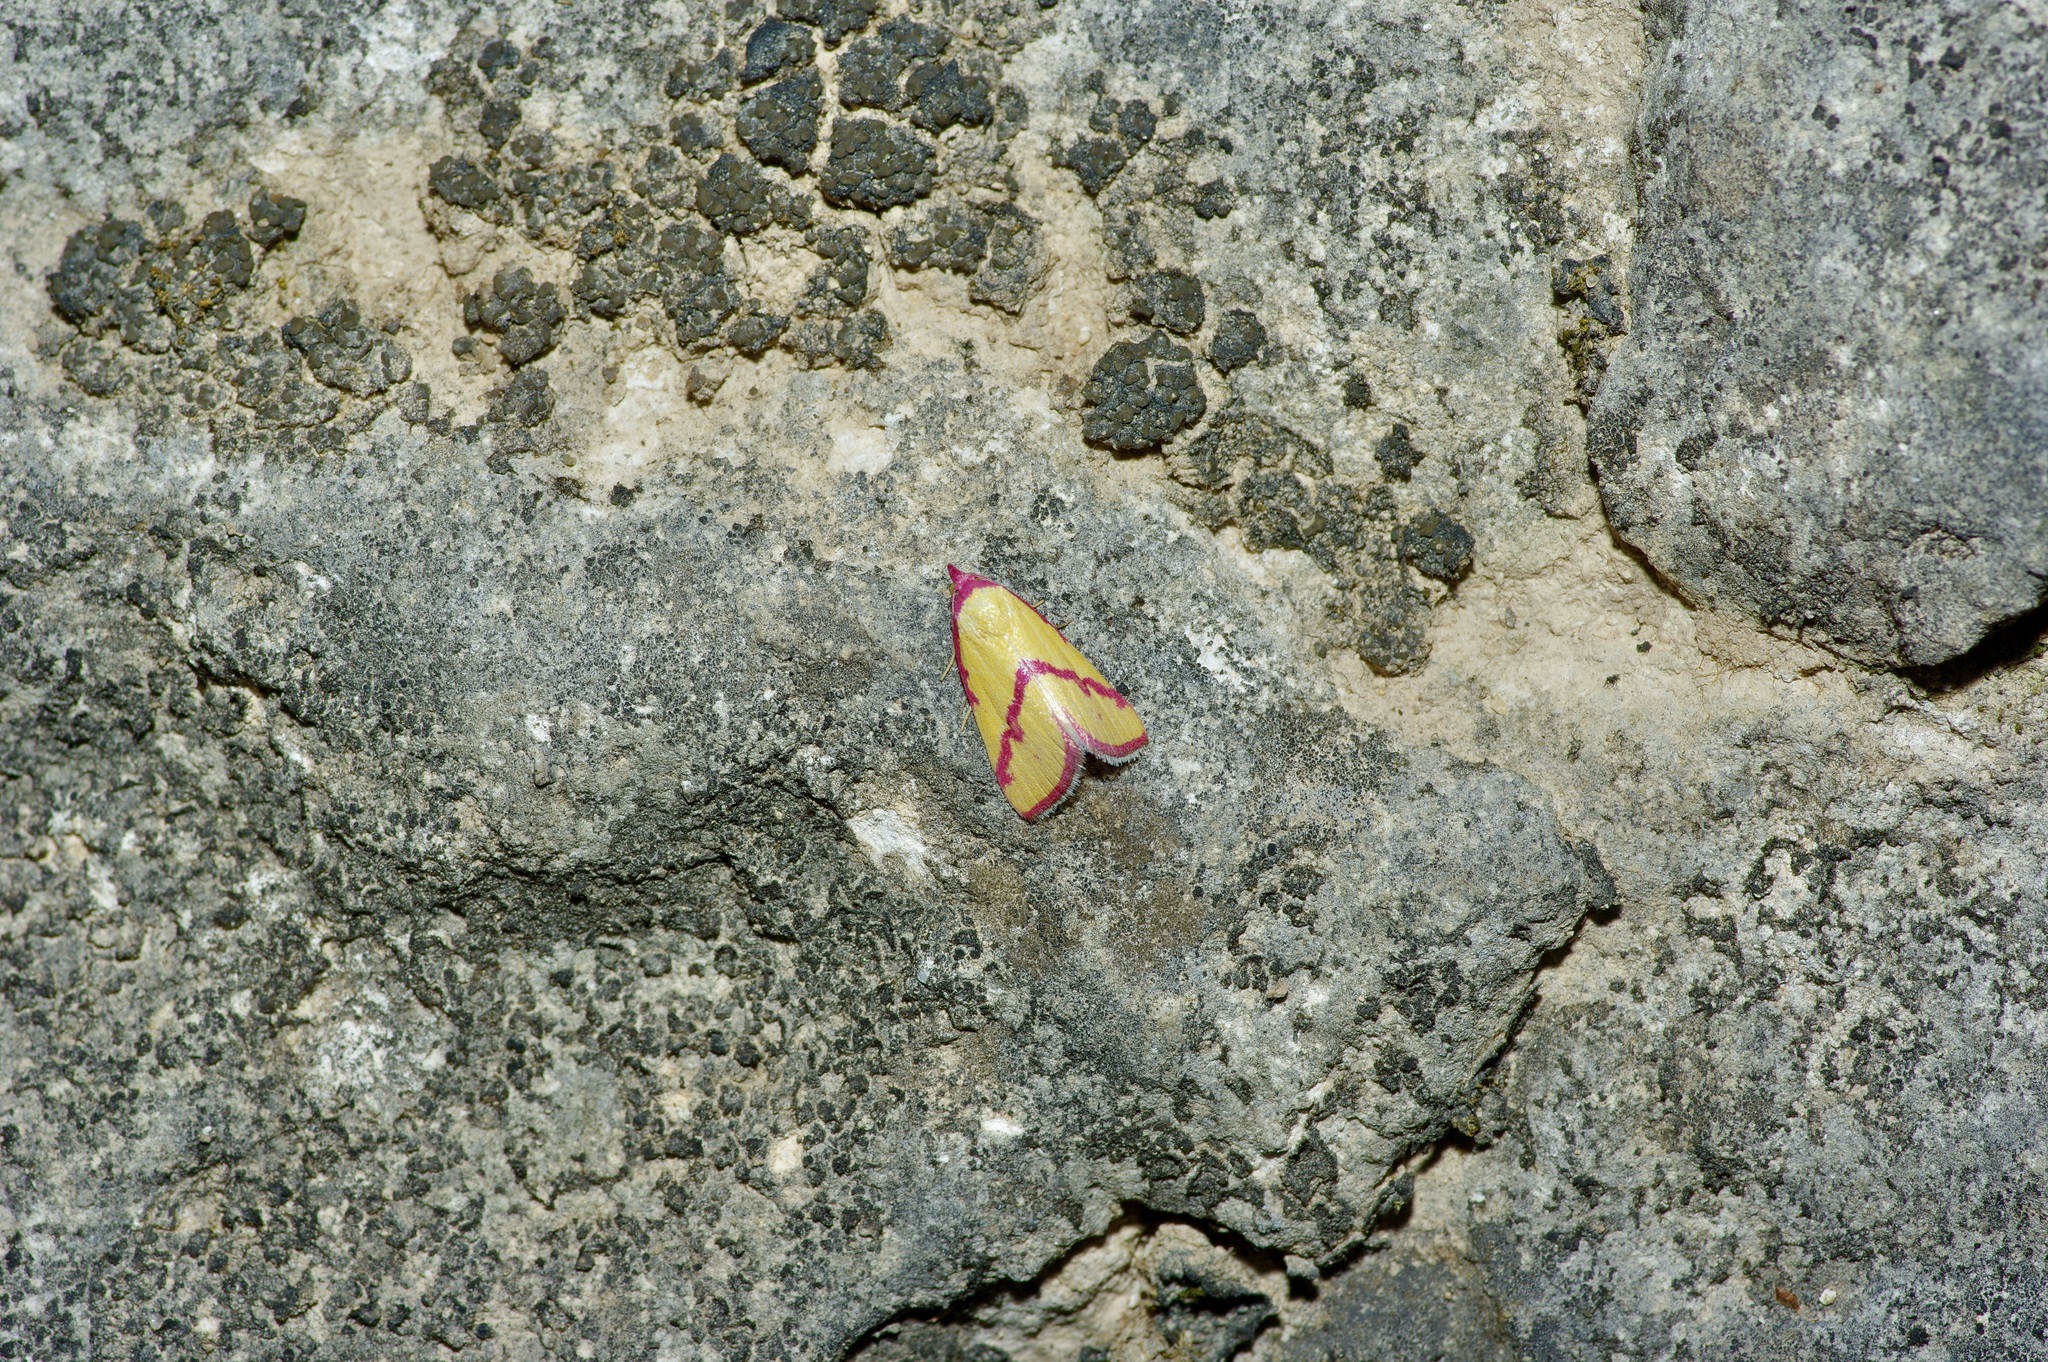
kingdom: Animalia
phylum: Arthropoda
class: Insecta
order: Lepidoptera
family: Erebidae
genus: Phytometra
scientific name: Phytometra ernestinana
